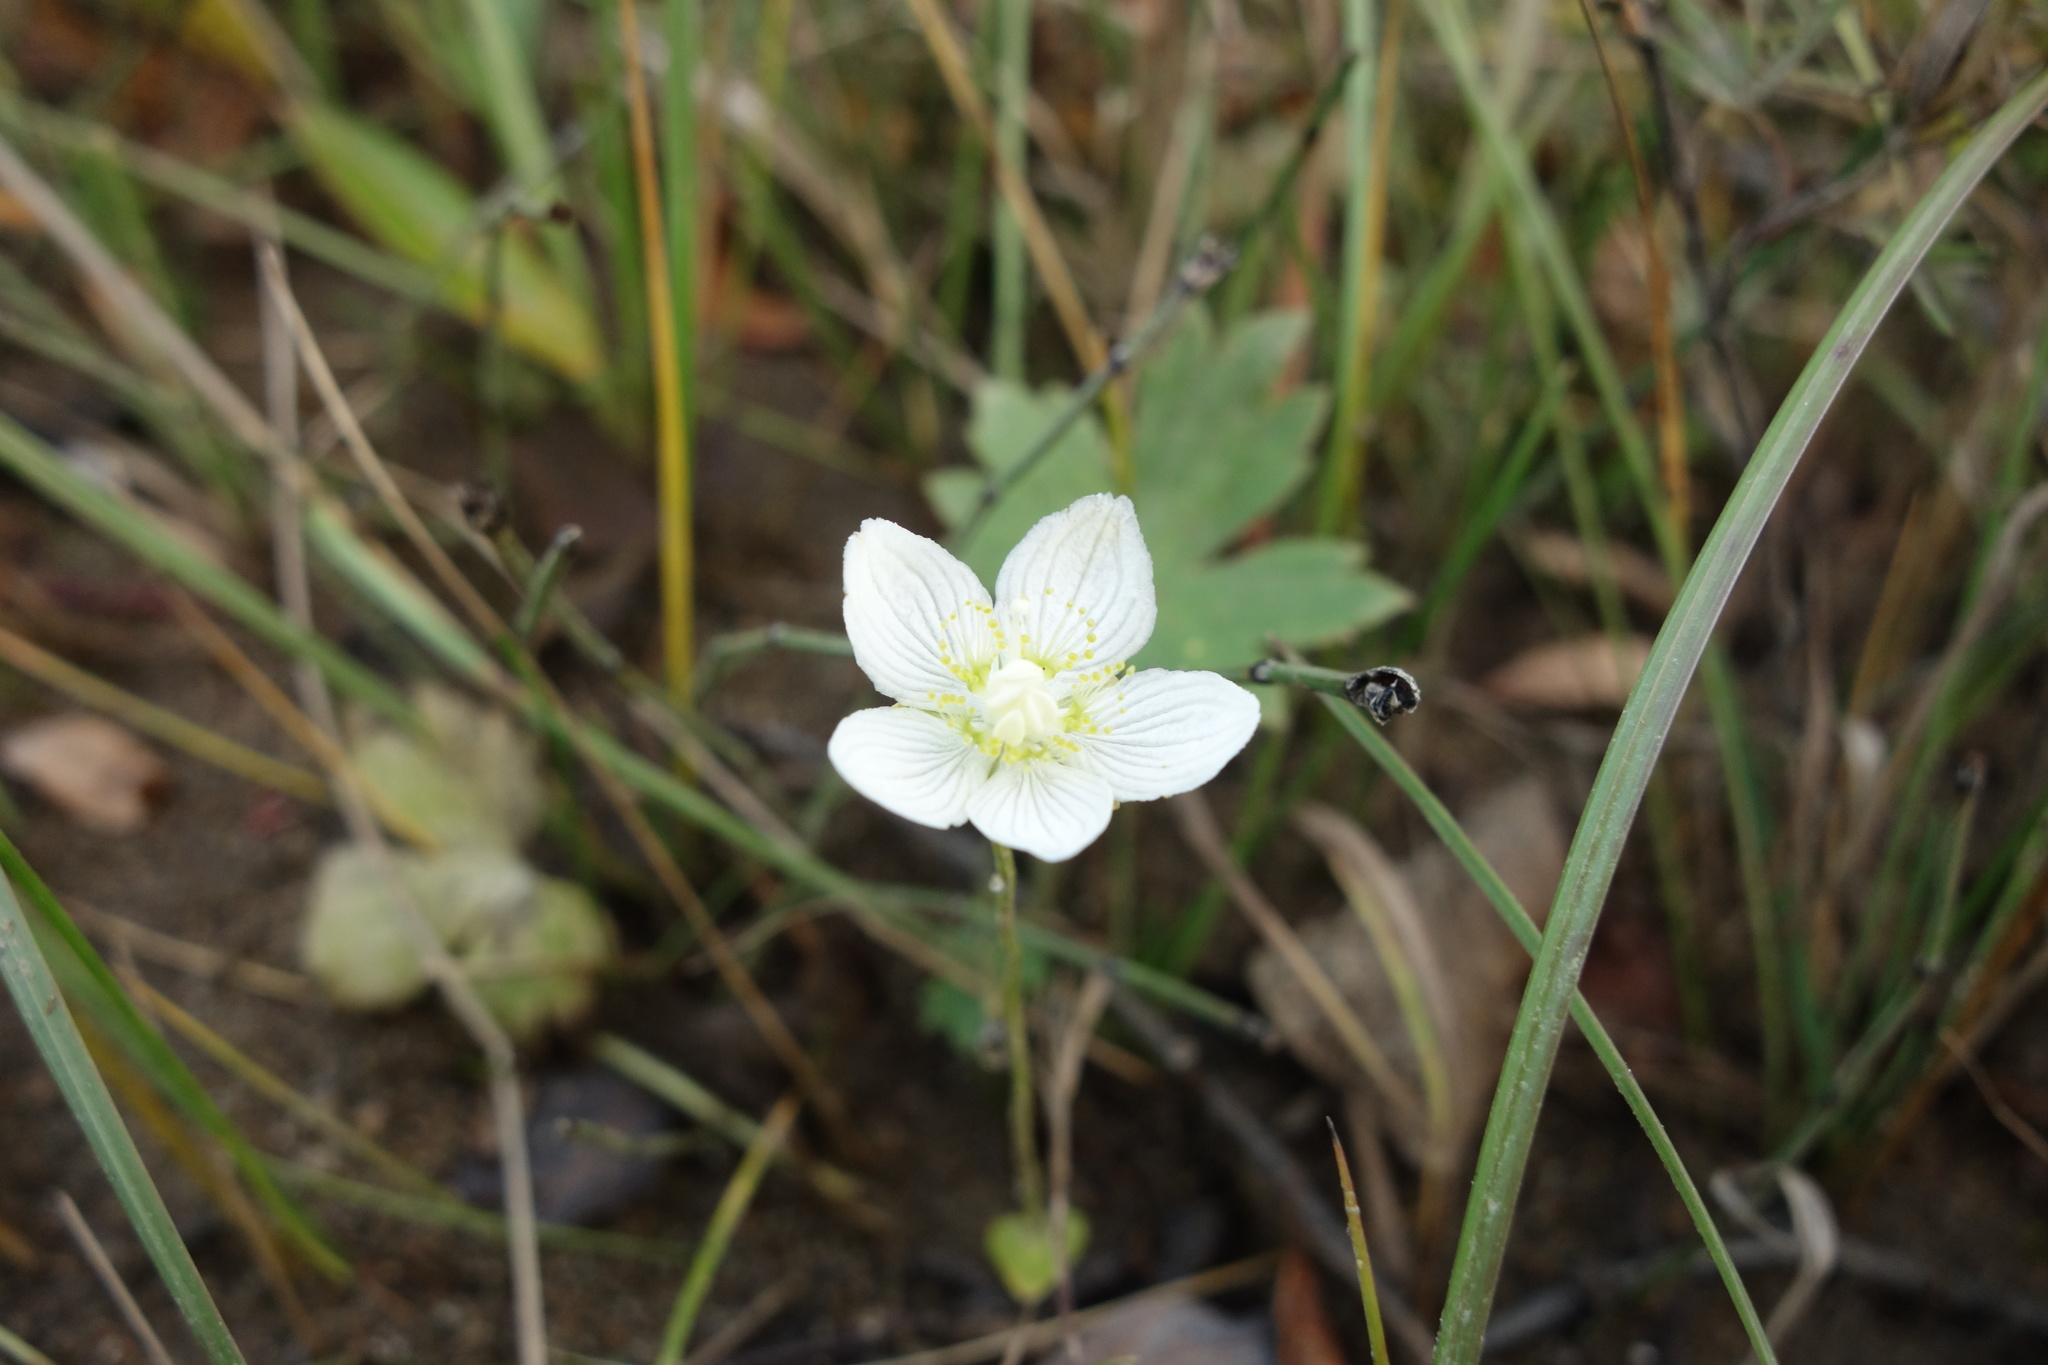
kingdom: Plantae
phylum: Tracheophyta
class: Magnoliopsida
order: Celastrales
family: Parnassiaceae
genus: Parnassia
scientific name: Parnassia palustris
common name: Grass-of-parnassus
